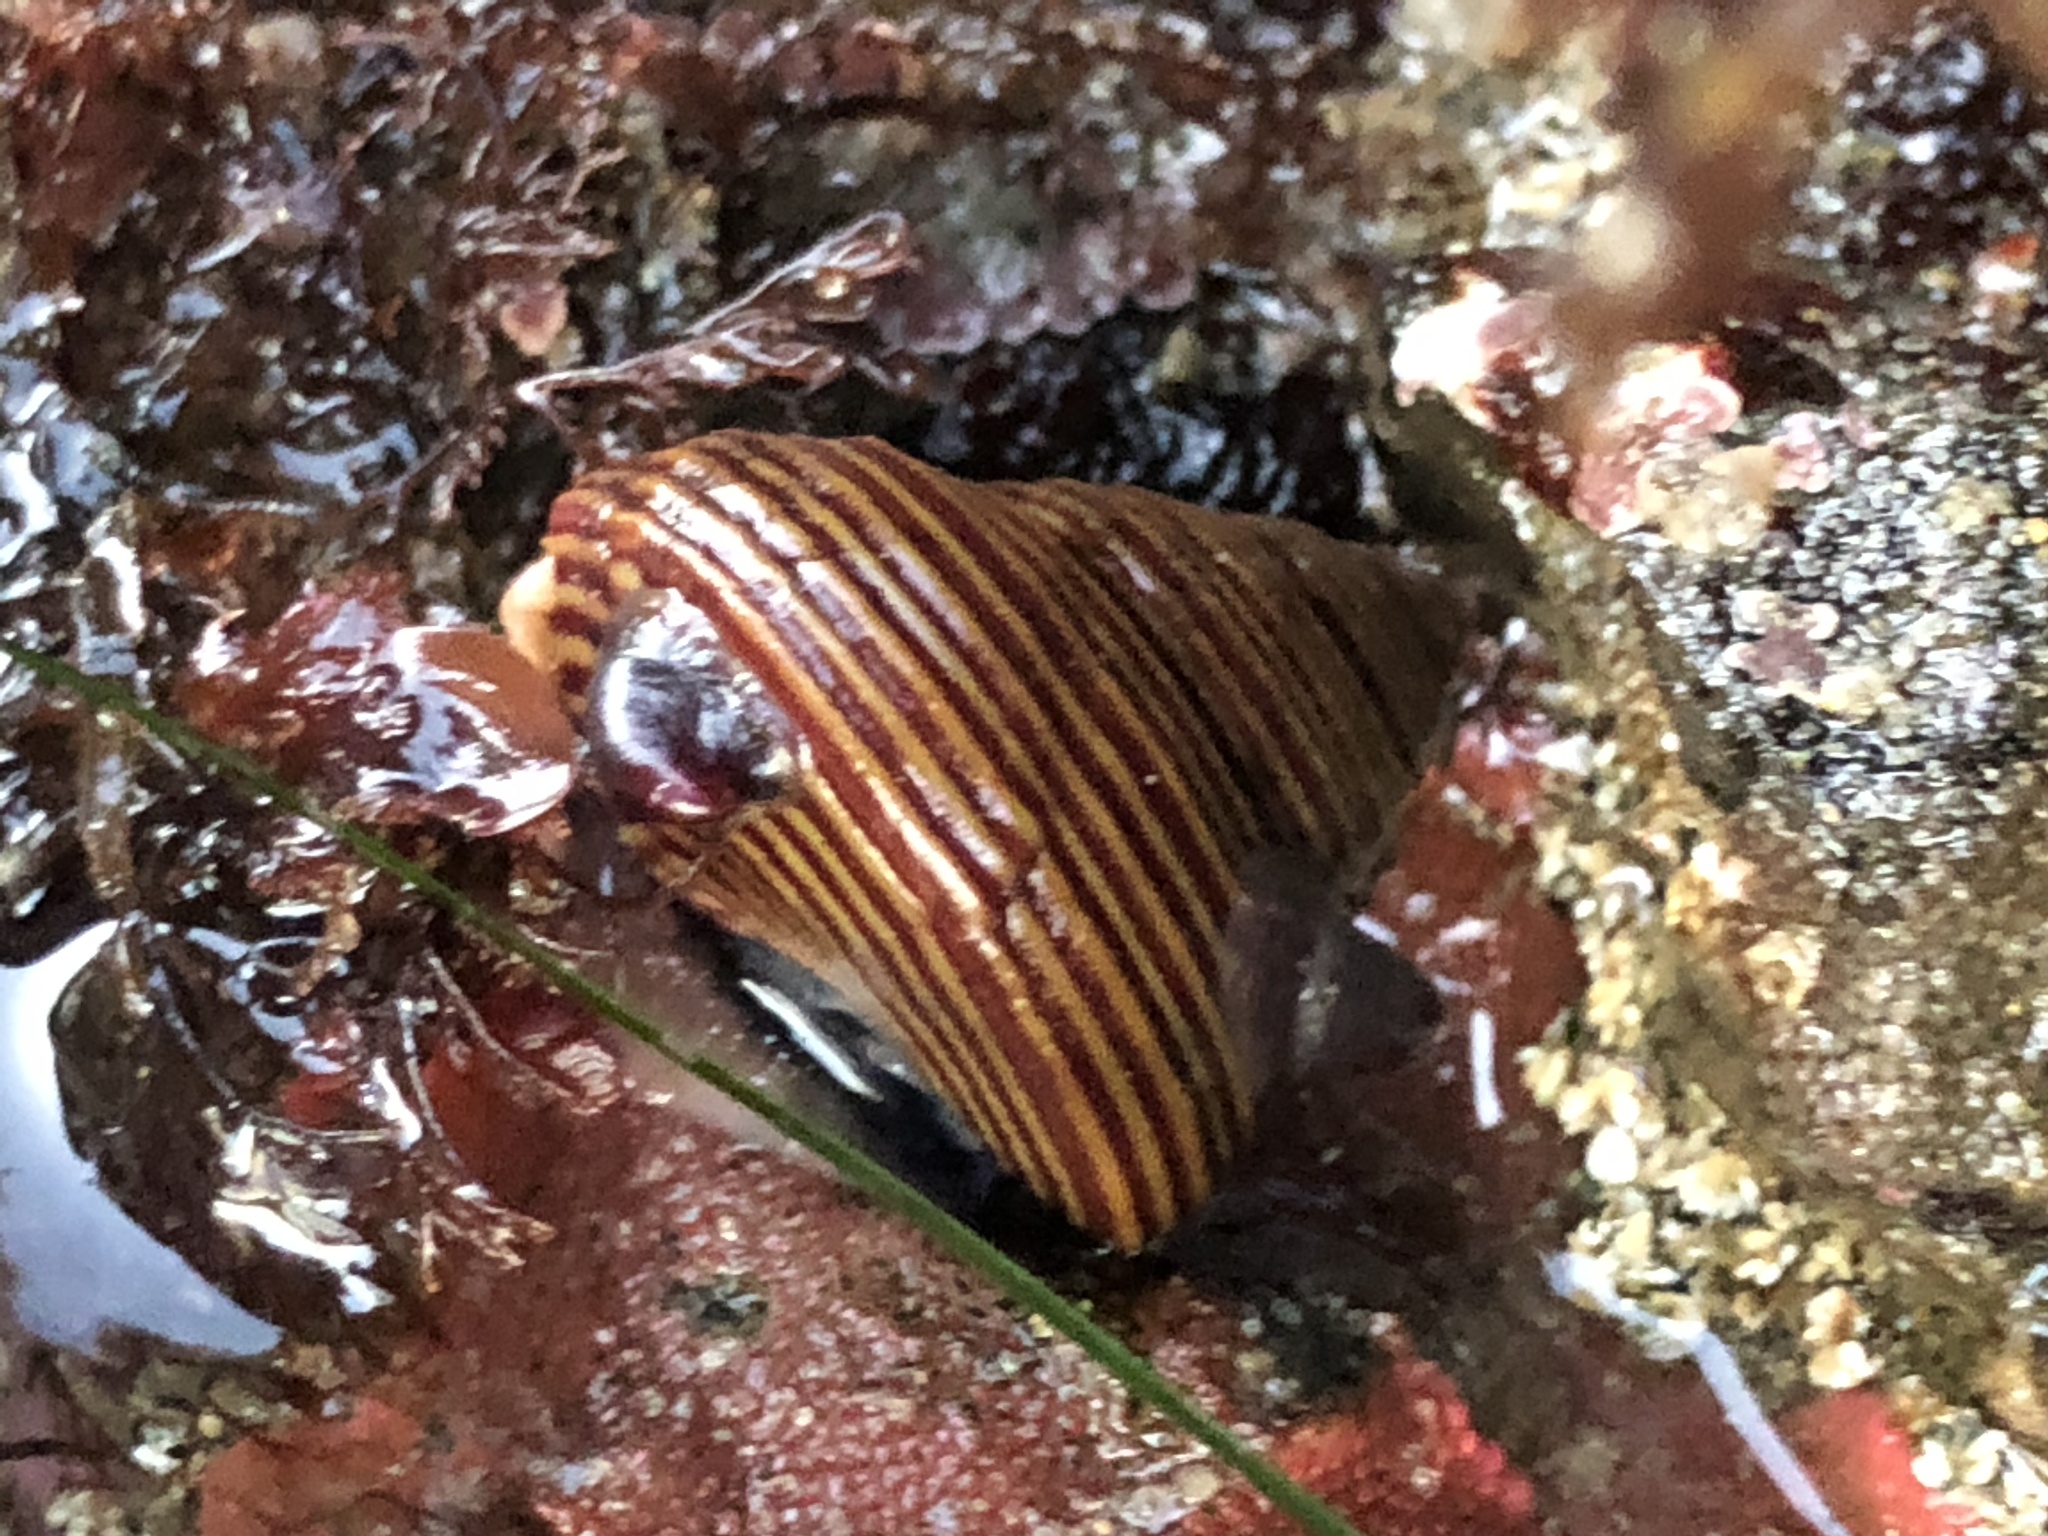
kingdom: Animalia
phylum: Mollusca
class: Gastropoda
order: Trochida
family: Calliostomatidae
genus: Calliostoma
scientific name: Calliostoma canaliculatum
